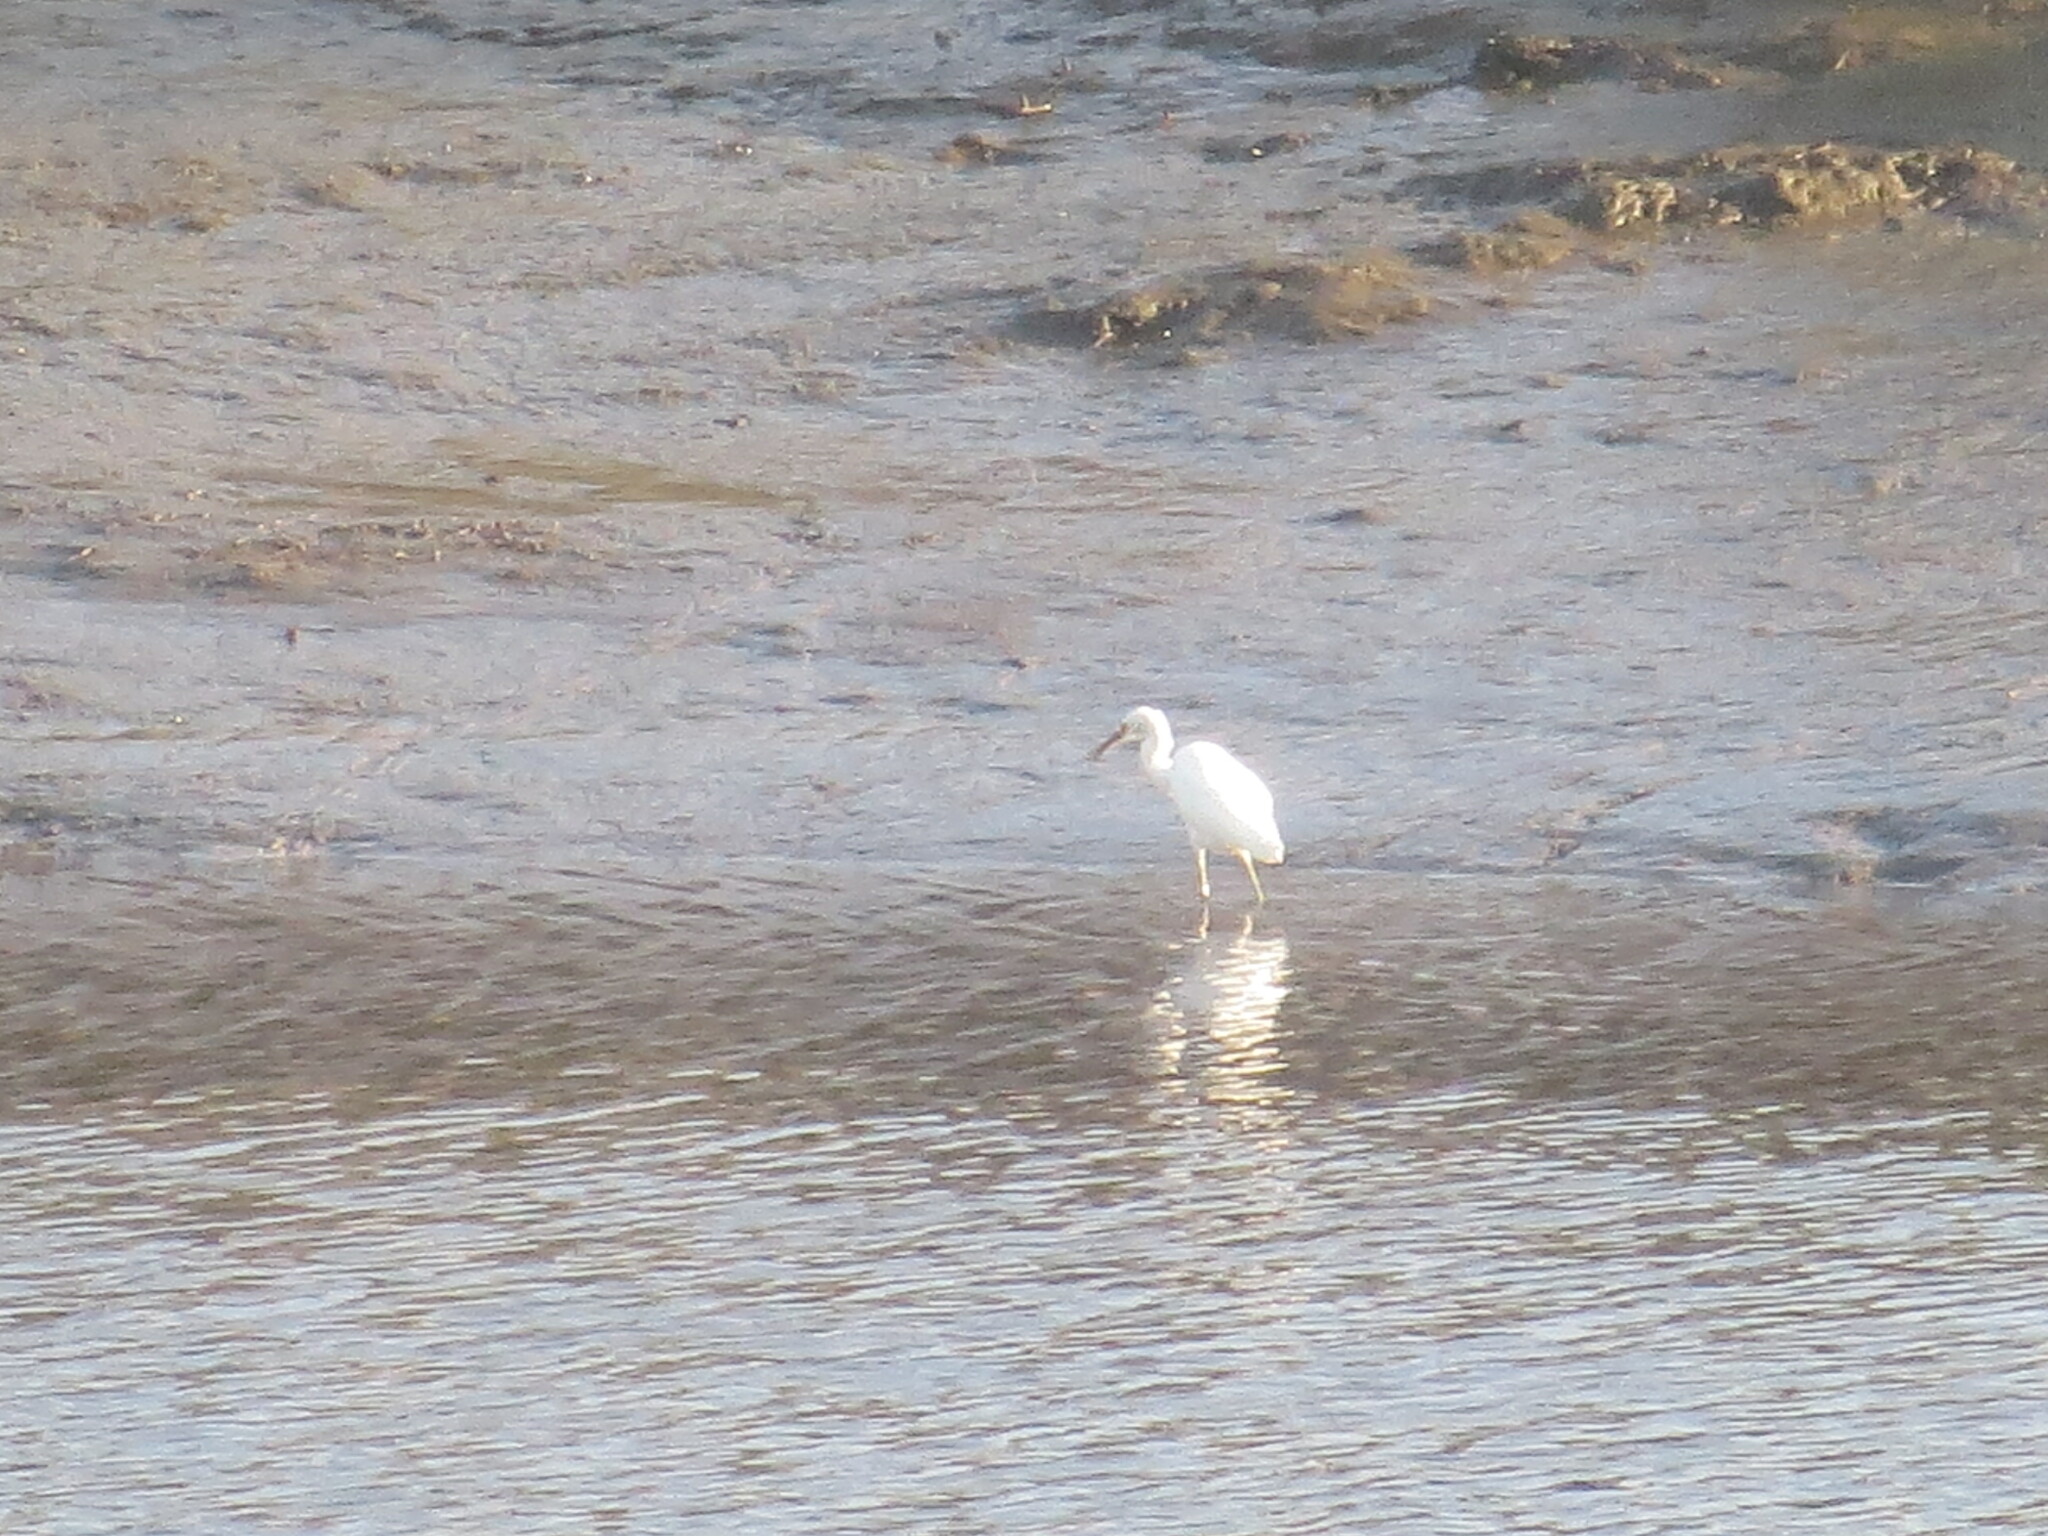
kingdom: Animalia
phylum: Chordata
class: Aves
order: Pelecaniformes
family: Ardeidae
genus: Egretta
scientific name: Egretta thula
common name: Snowy egret
